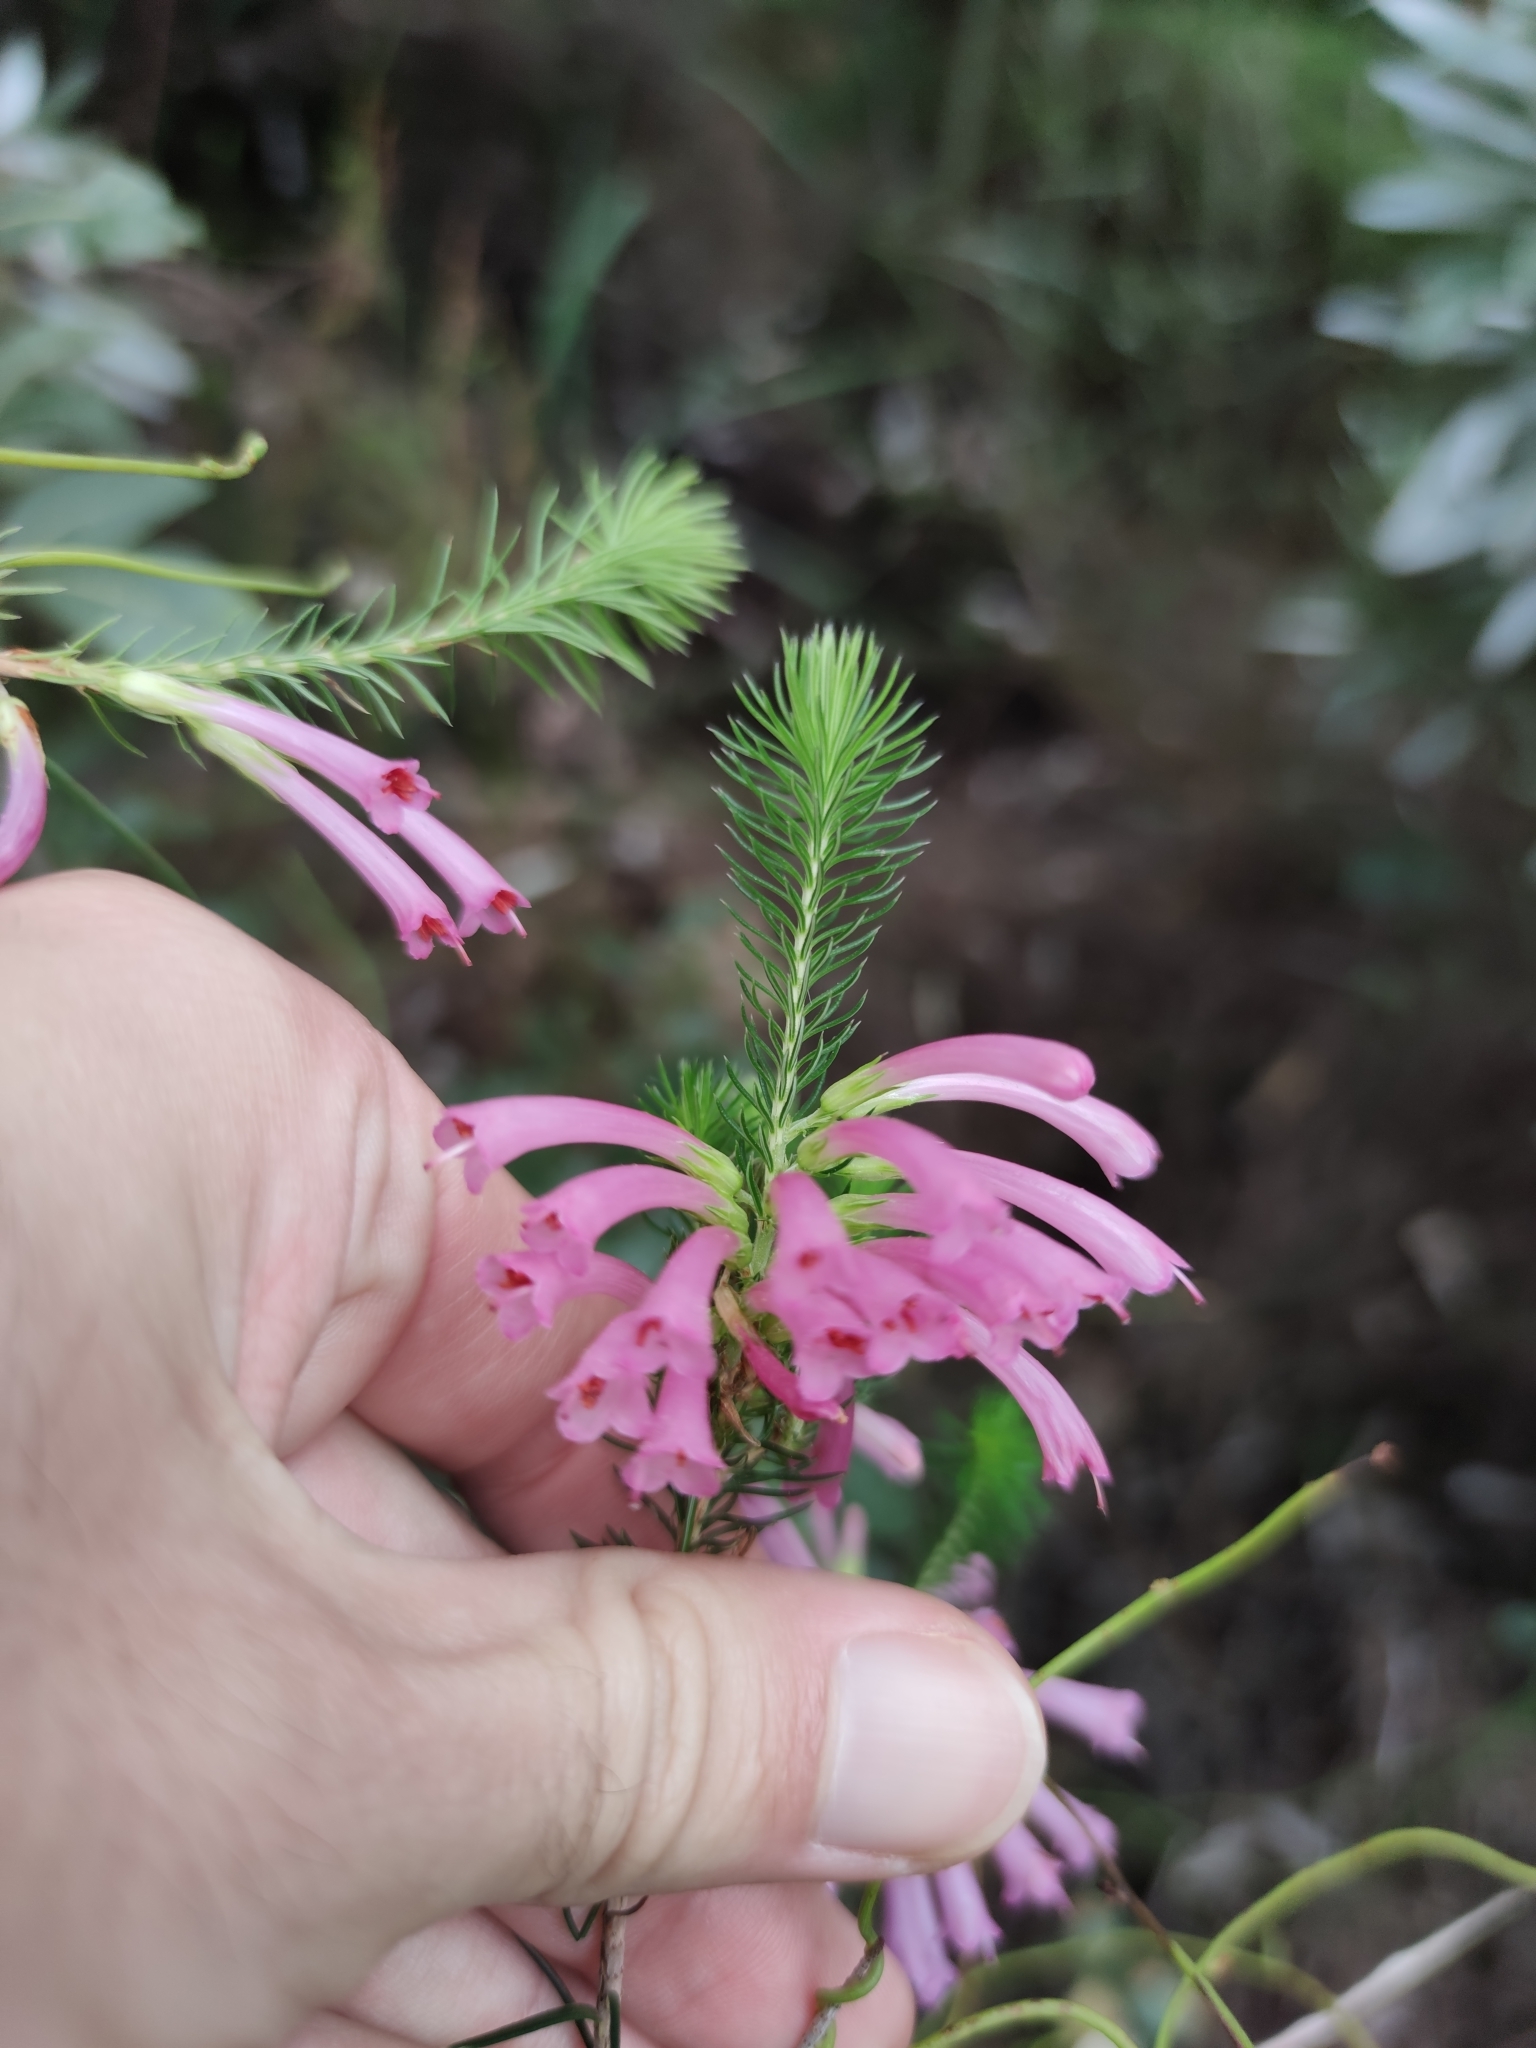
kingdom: Plantae
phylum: Tracheophyta
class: Magnoliopsida
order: Ericales
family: Ericaceae
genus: Erica
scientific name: Erica abietina
